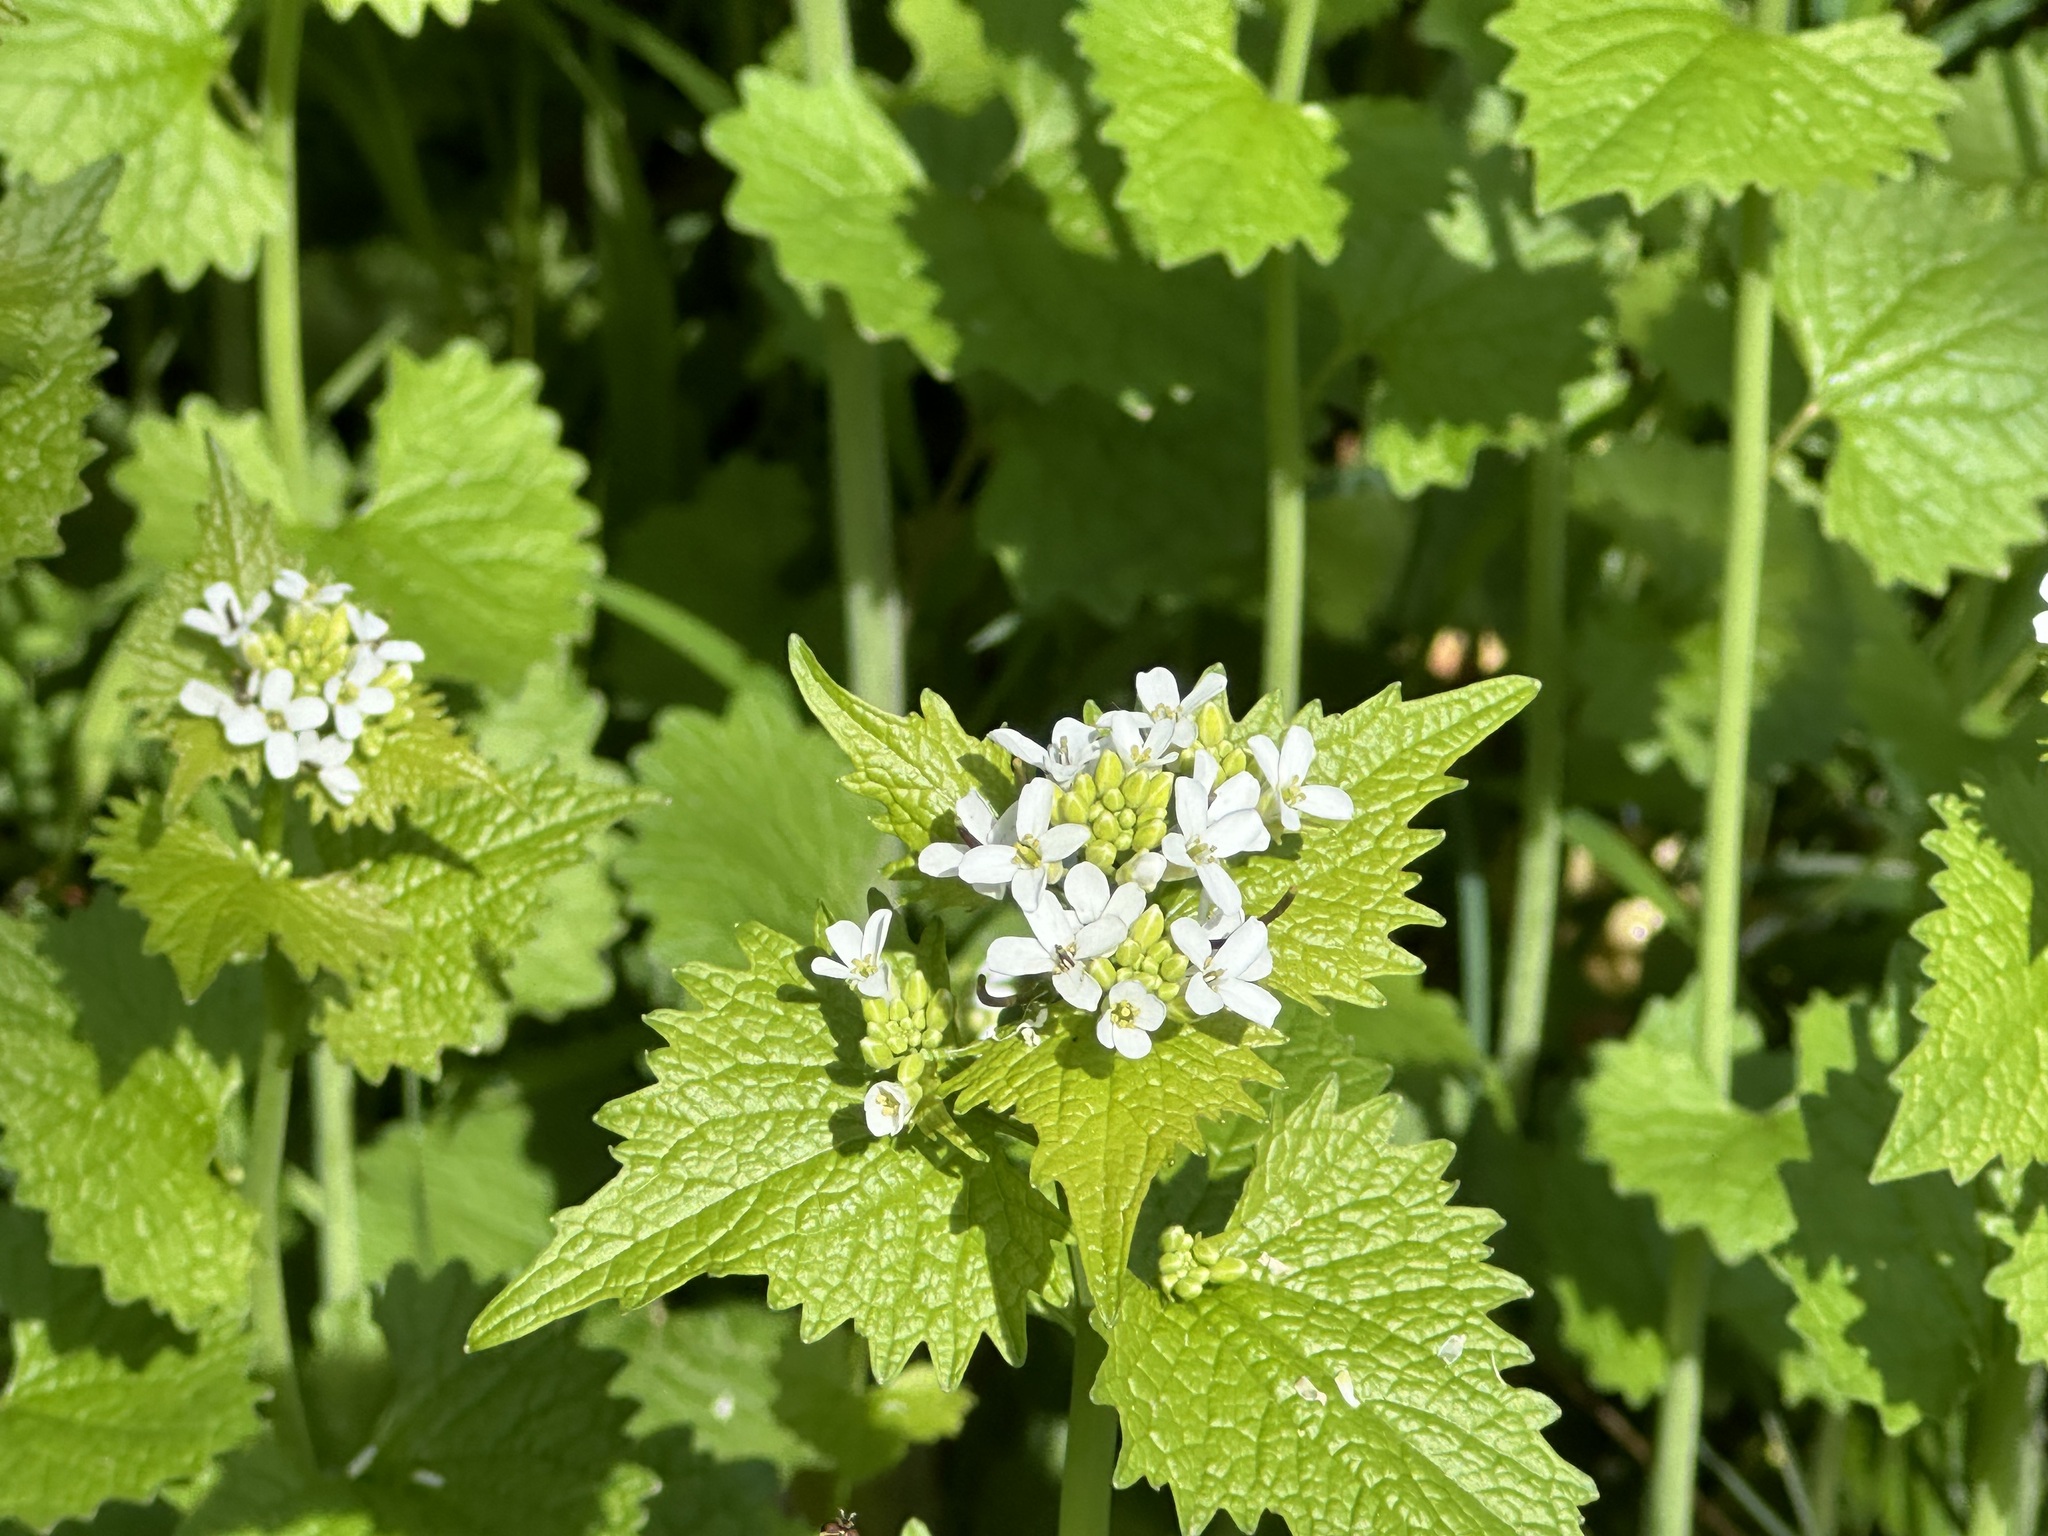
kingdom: Plantae
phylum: Tracheophyta
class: Magnoliopsida
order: Brassicales
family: Brassicaceae
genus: Alliaria
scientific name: Alliaria petiolata
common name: Garlic mustard
